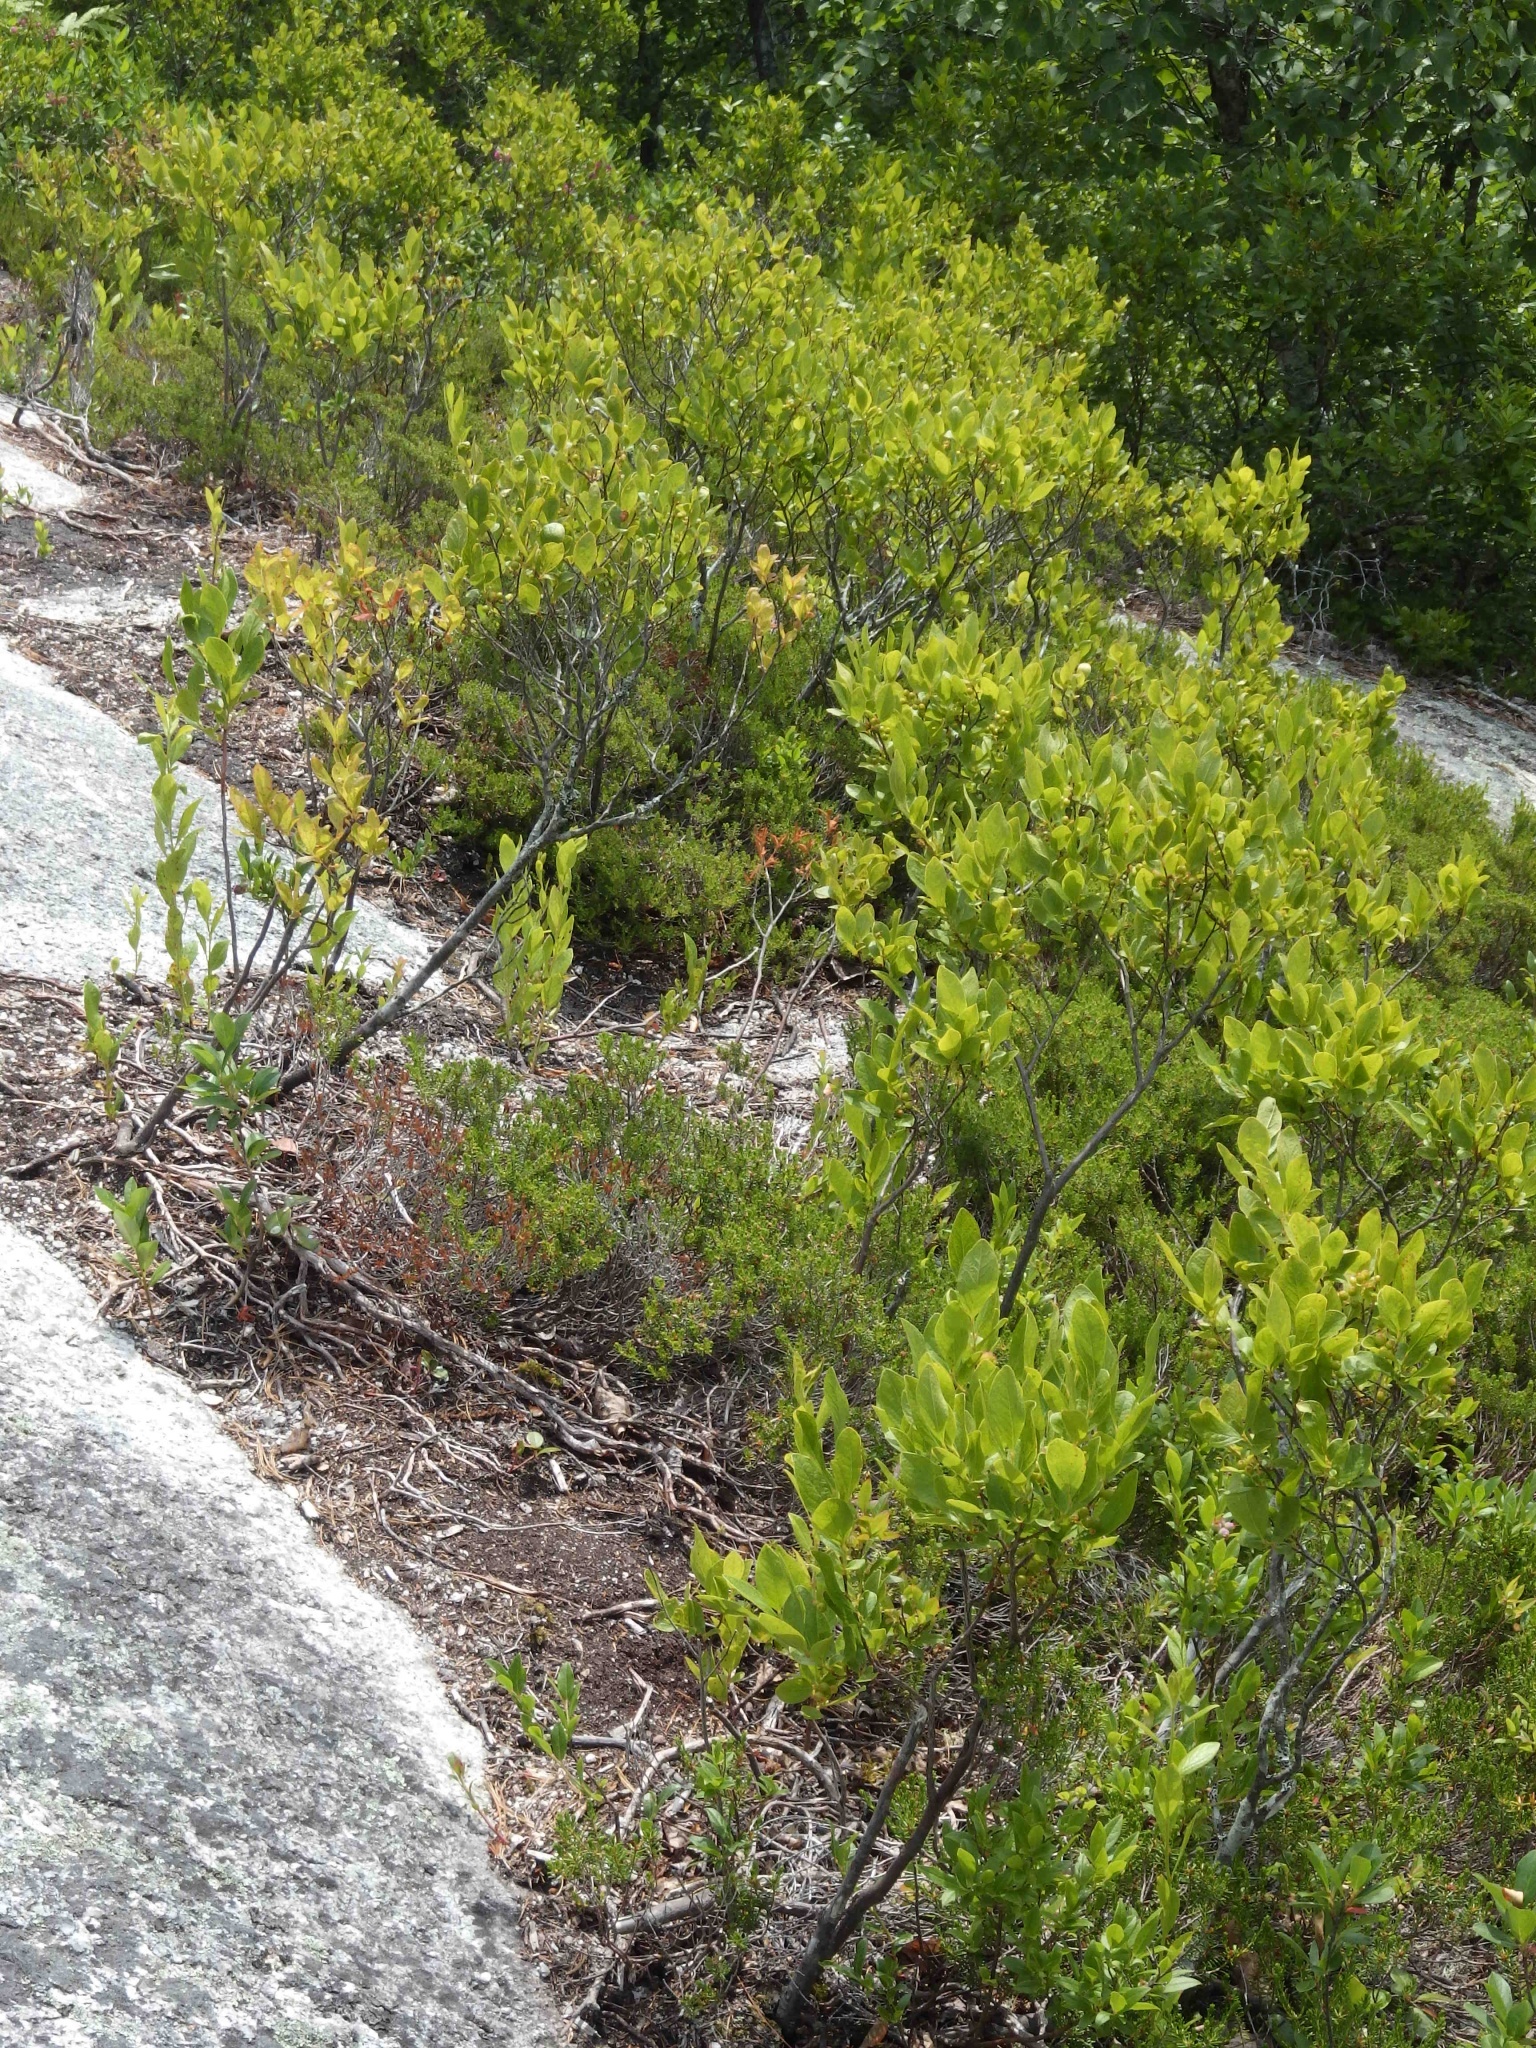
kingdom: Plantae
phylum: Tracheophyta
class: Magnoliopsida
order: Ericales
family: Ericaceae
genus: Gaylussacia
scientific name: Gaylussacia baccata
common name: Black huckleberry
